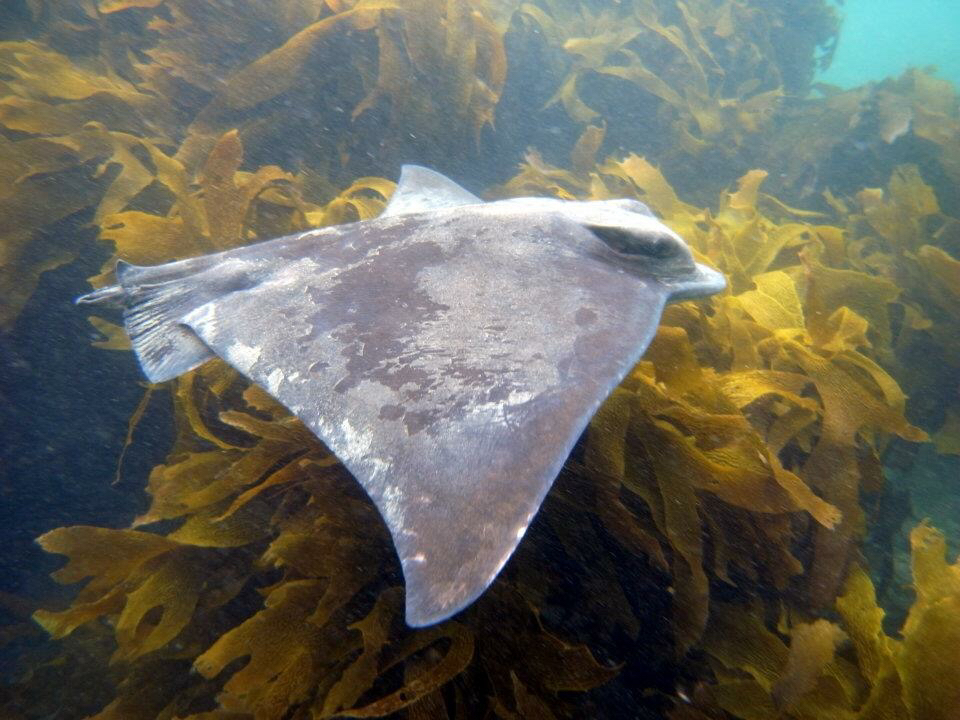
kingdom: Animalia
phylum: Chordata
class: Elasmobranchii
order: Myliobatiformes
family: Myliobatidae
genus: Myliobatis
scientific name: Myliobatis tenuicaudatus
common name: Eagle ray
